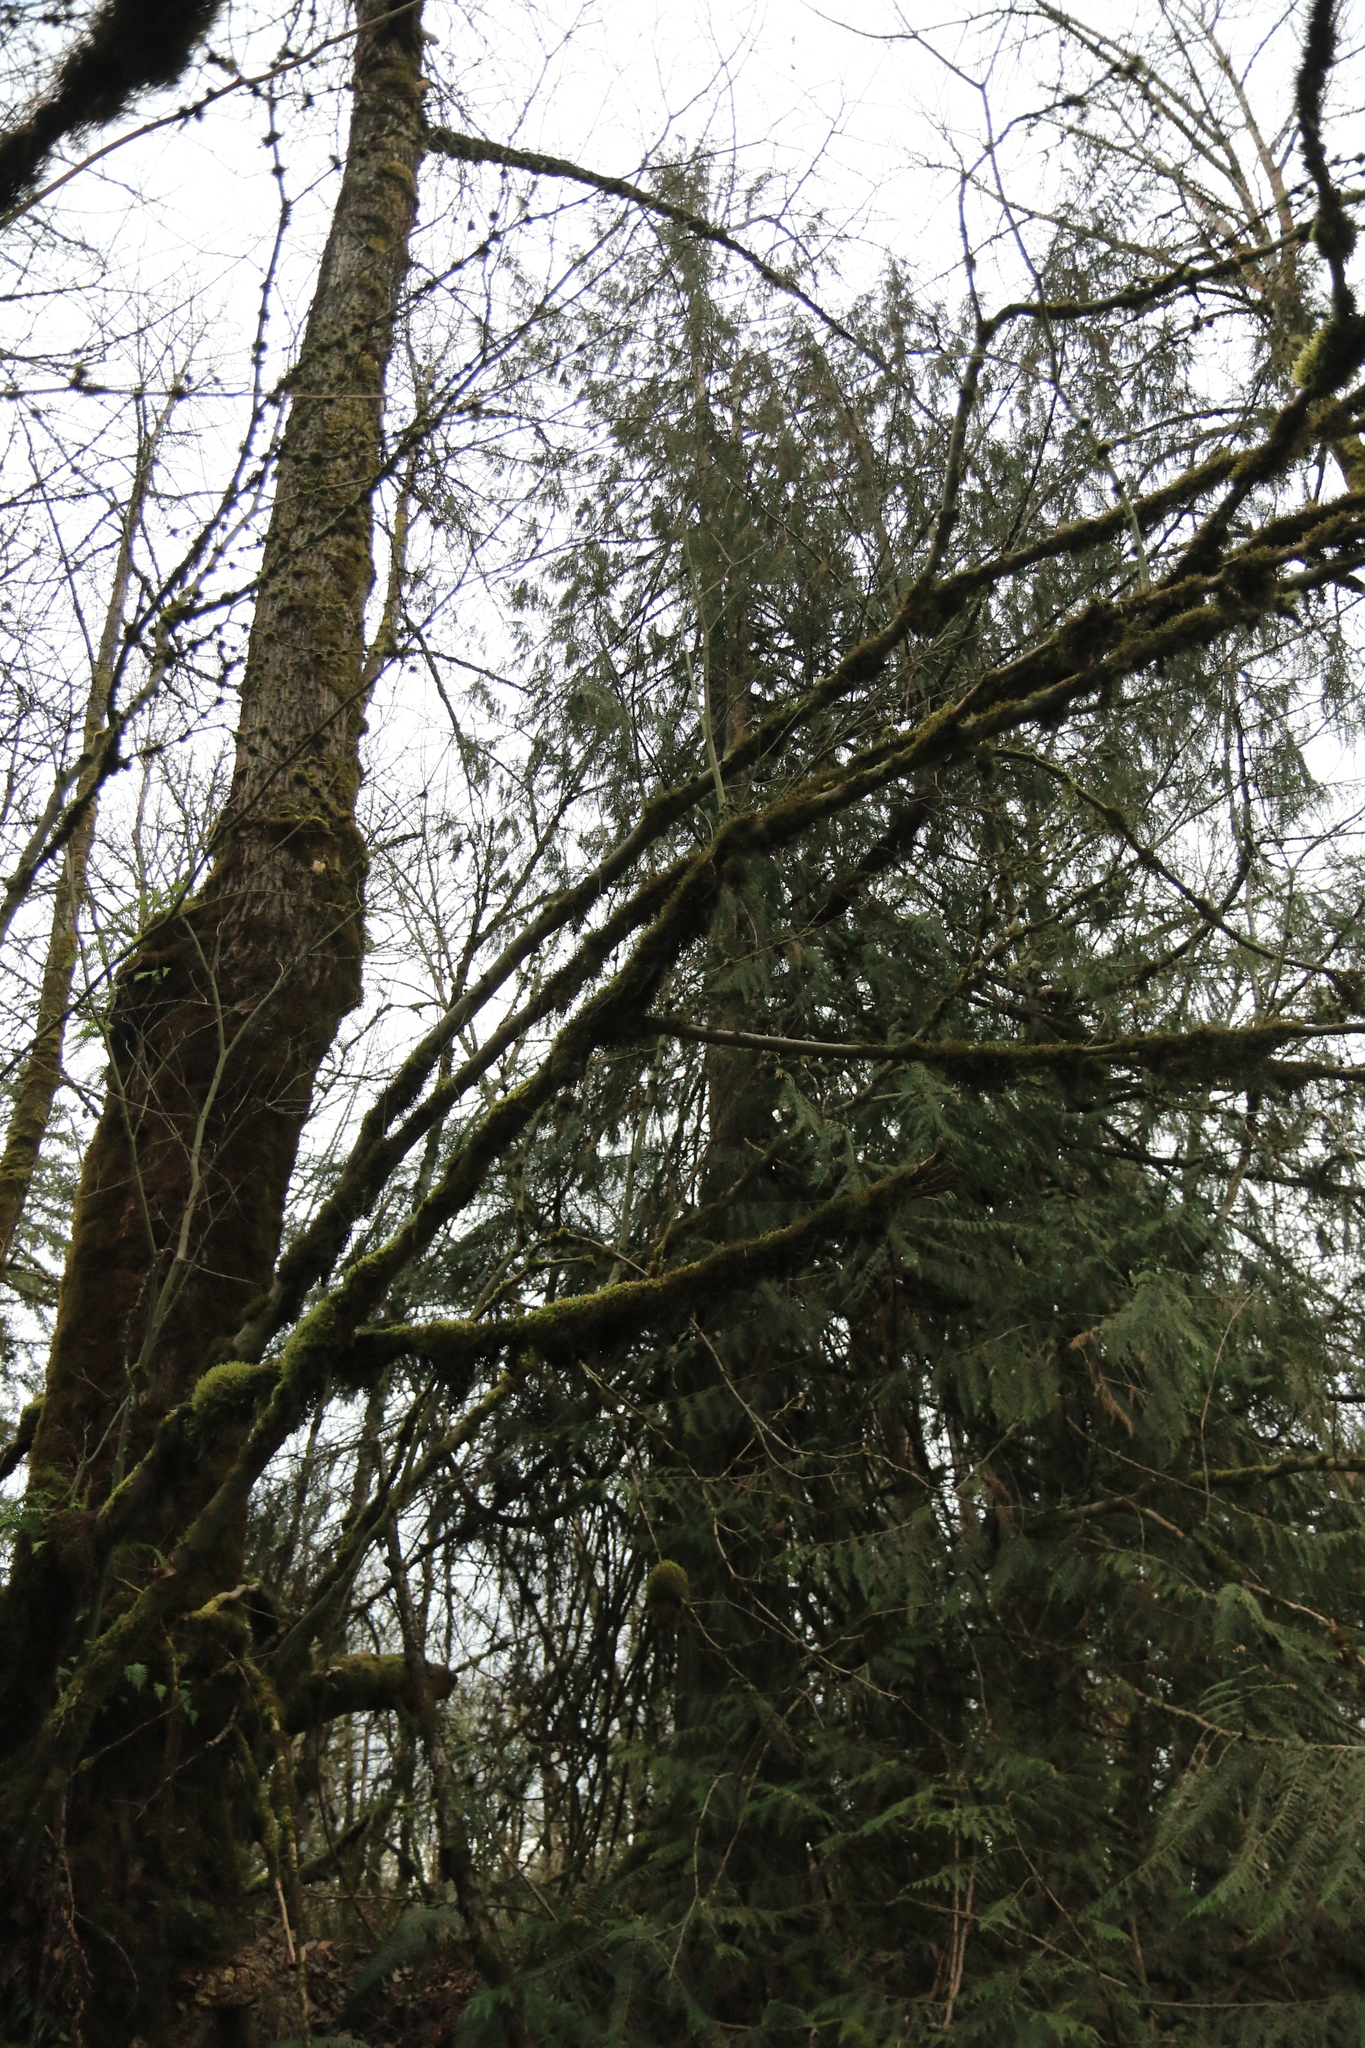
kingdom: Plantae
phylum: Tracheophyta
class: Pinopsida
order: Pinales
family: Cupressaceae
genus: Thuja
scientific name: Thuja plicata
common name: Western red-cedar
